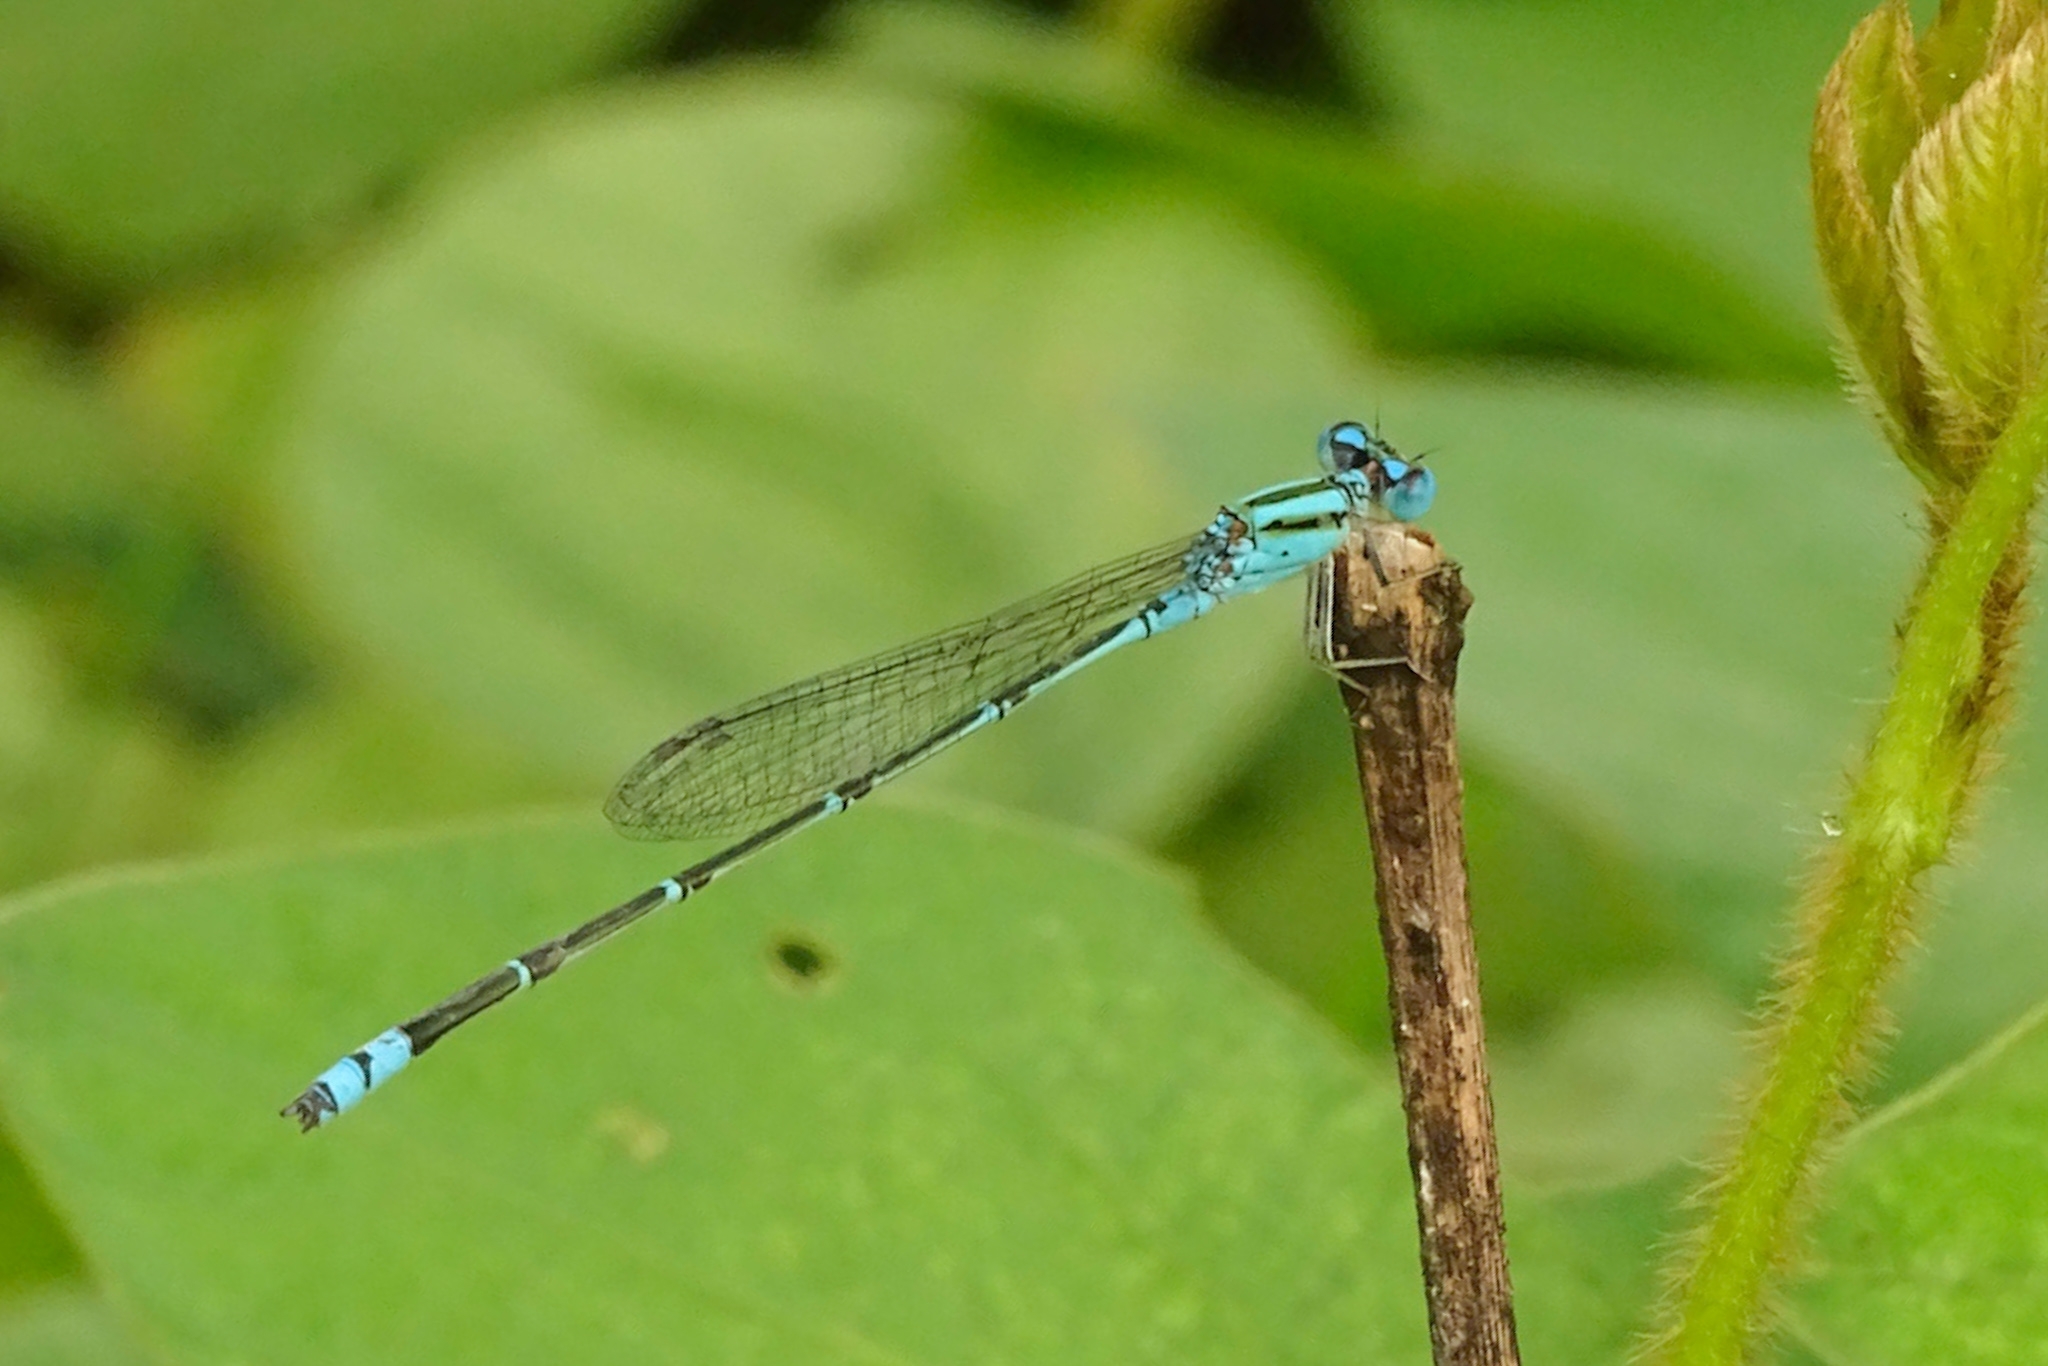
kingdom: Animalia
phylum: Arthropoda
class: Insecta
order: Odonata
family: Coenagrionidae
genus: Pseudagrion
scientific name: Pseudagrion microcephalum
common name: Blue riverdamsel
